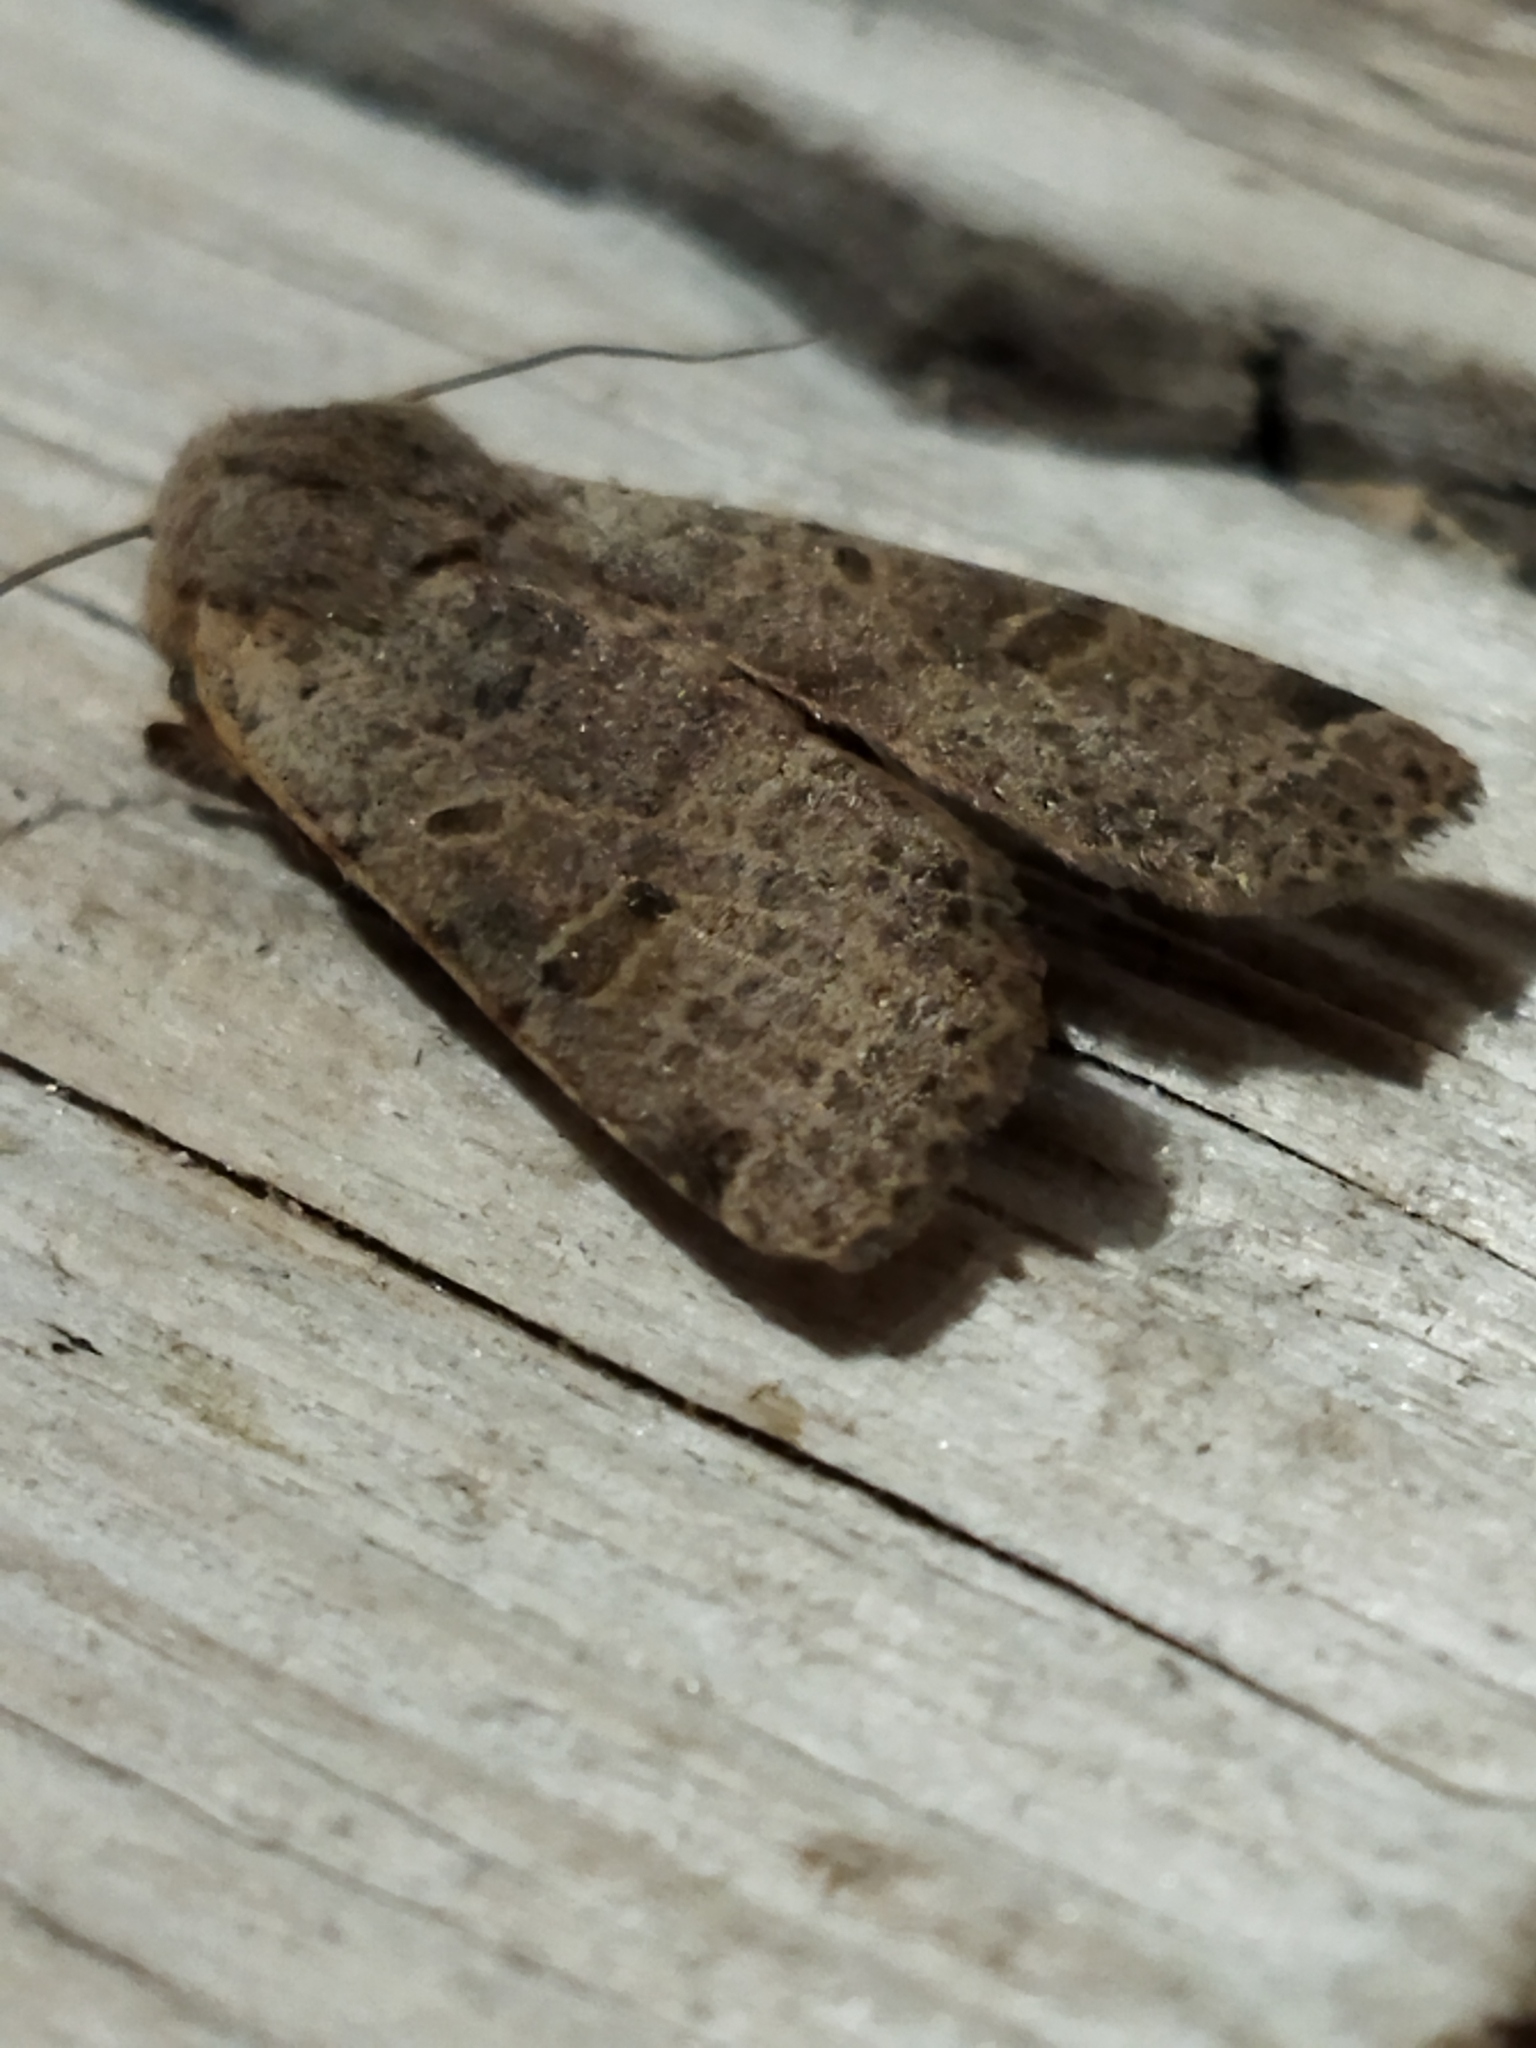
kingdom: Animalia
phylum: Arthropoda
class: Insecta
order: Lepidoptera
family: Noctuidae
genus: Agrochola
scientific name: Agrochola lychnidis
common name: Beaded chestnut
